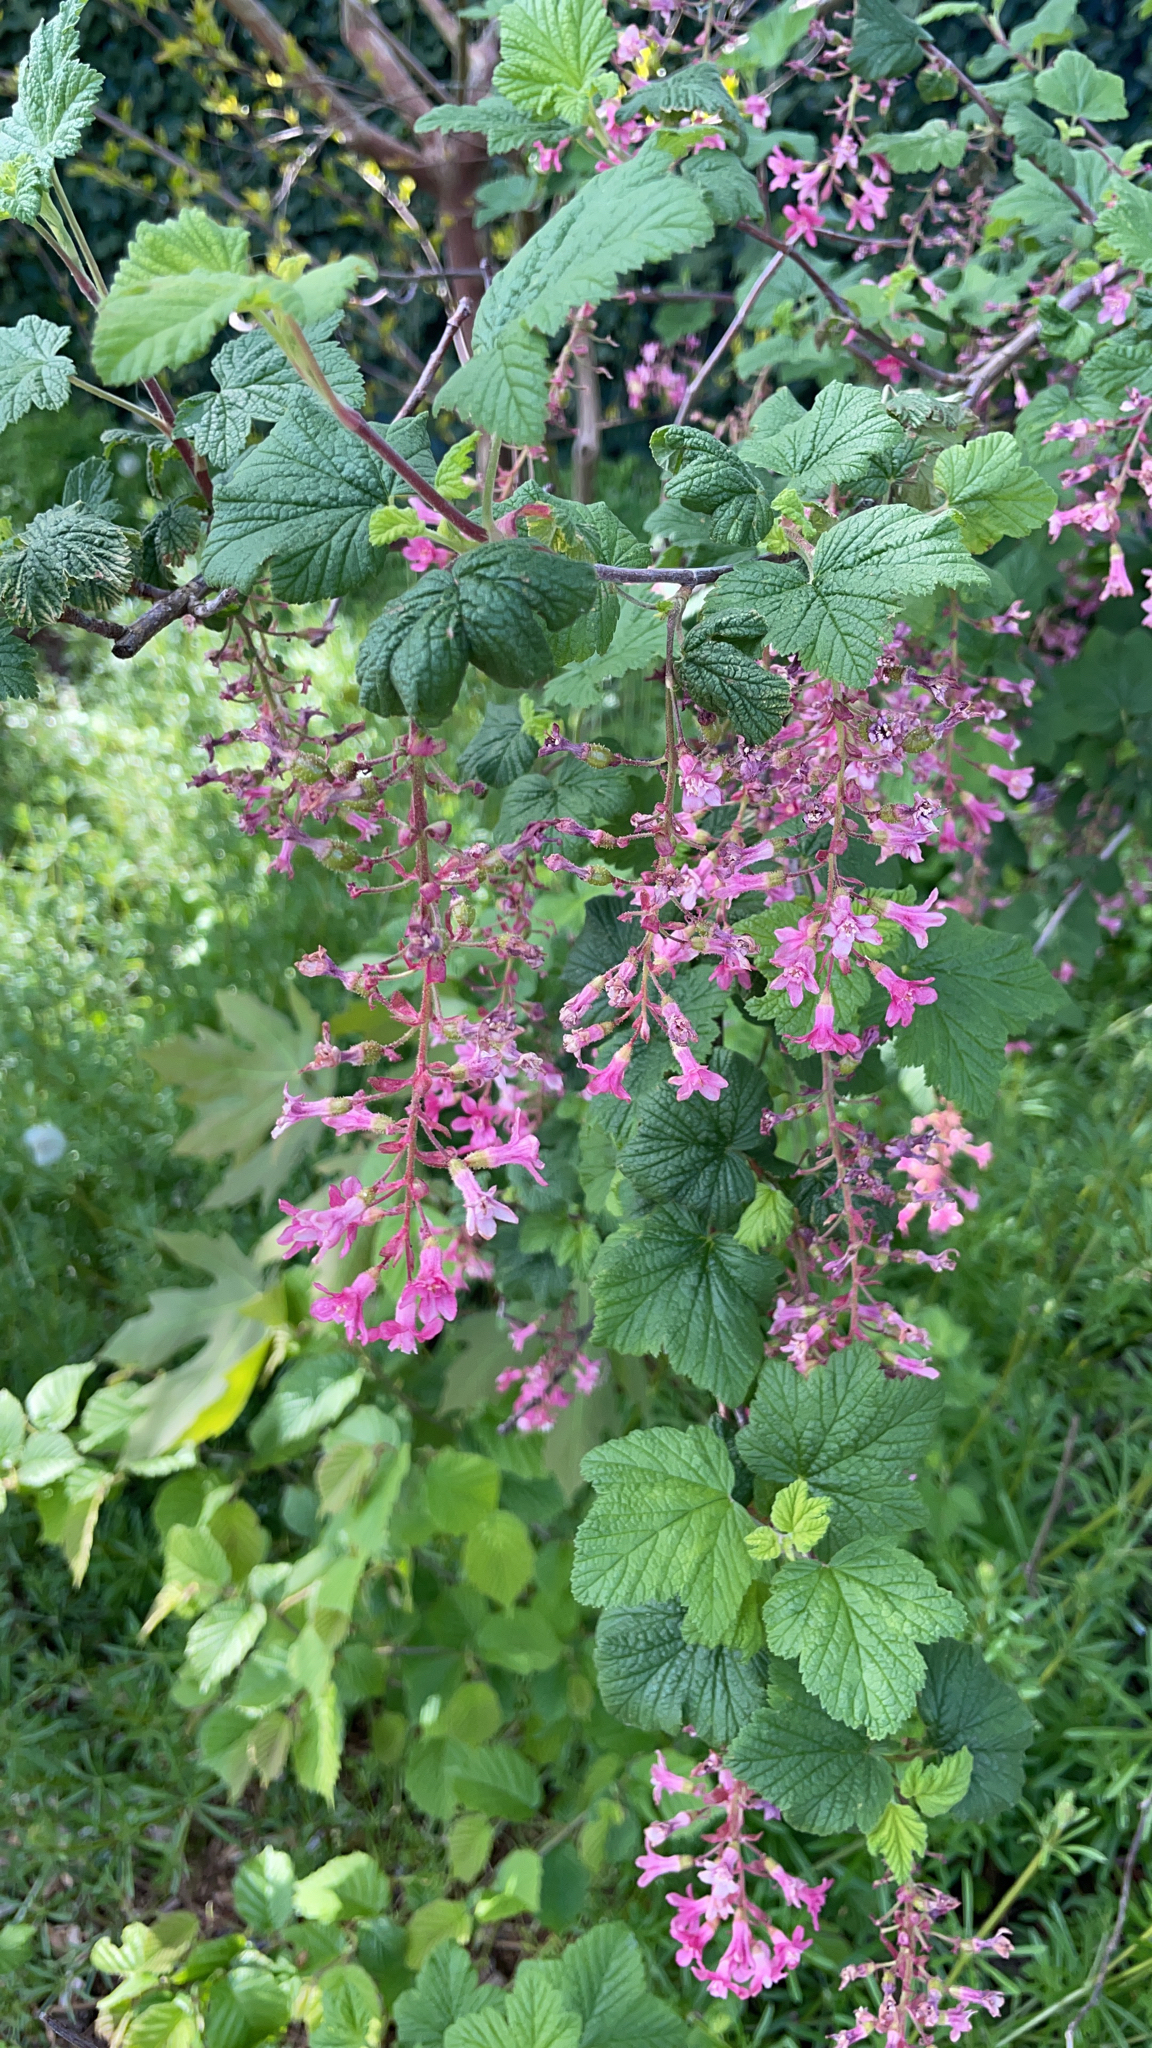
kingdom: Plantae
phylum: Tracheophyta
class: Magnoliopsida
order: Saxifragales
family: Grossulariaceae
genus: Ribes
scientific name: Ribes sanguineum
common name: Flowering currant
